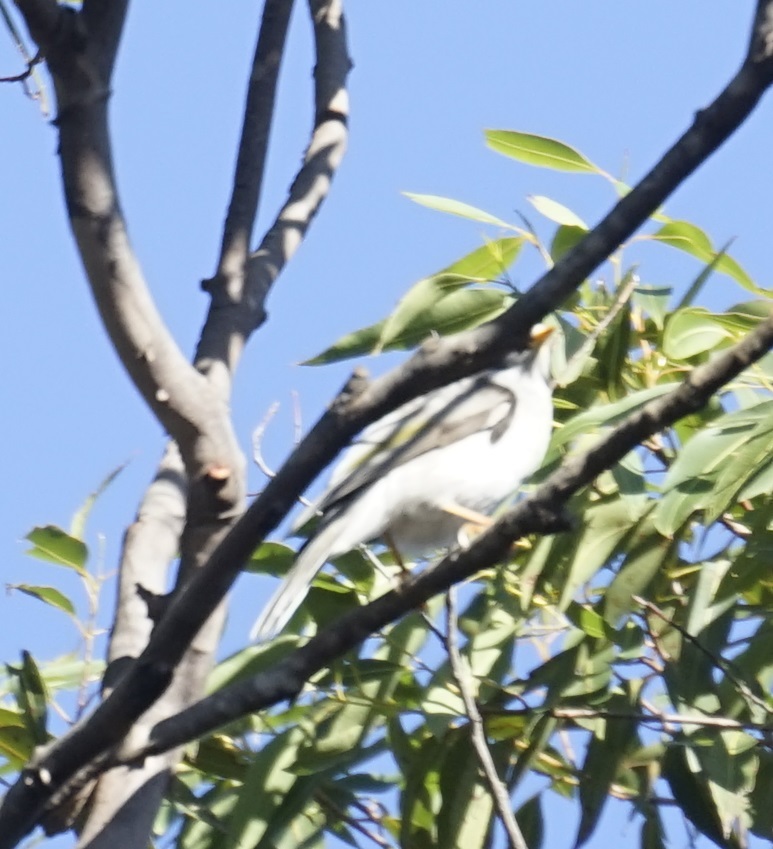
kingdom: Animalia
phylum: Chordata
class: Aves
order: Passeriformes
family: Meliphagidae
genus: Manorina
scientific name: Manorina melanocephala
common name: Noisy miner
